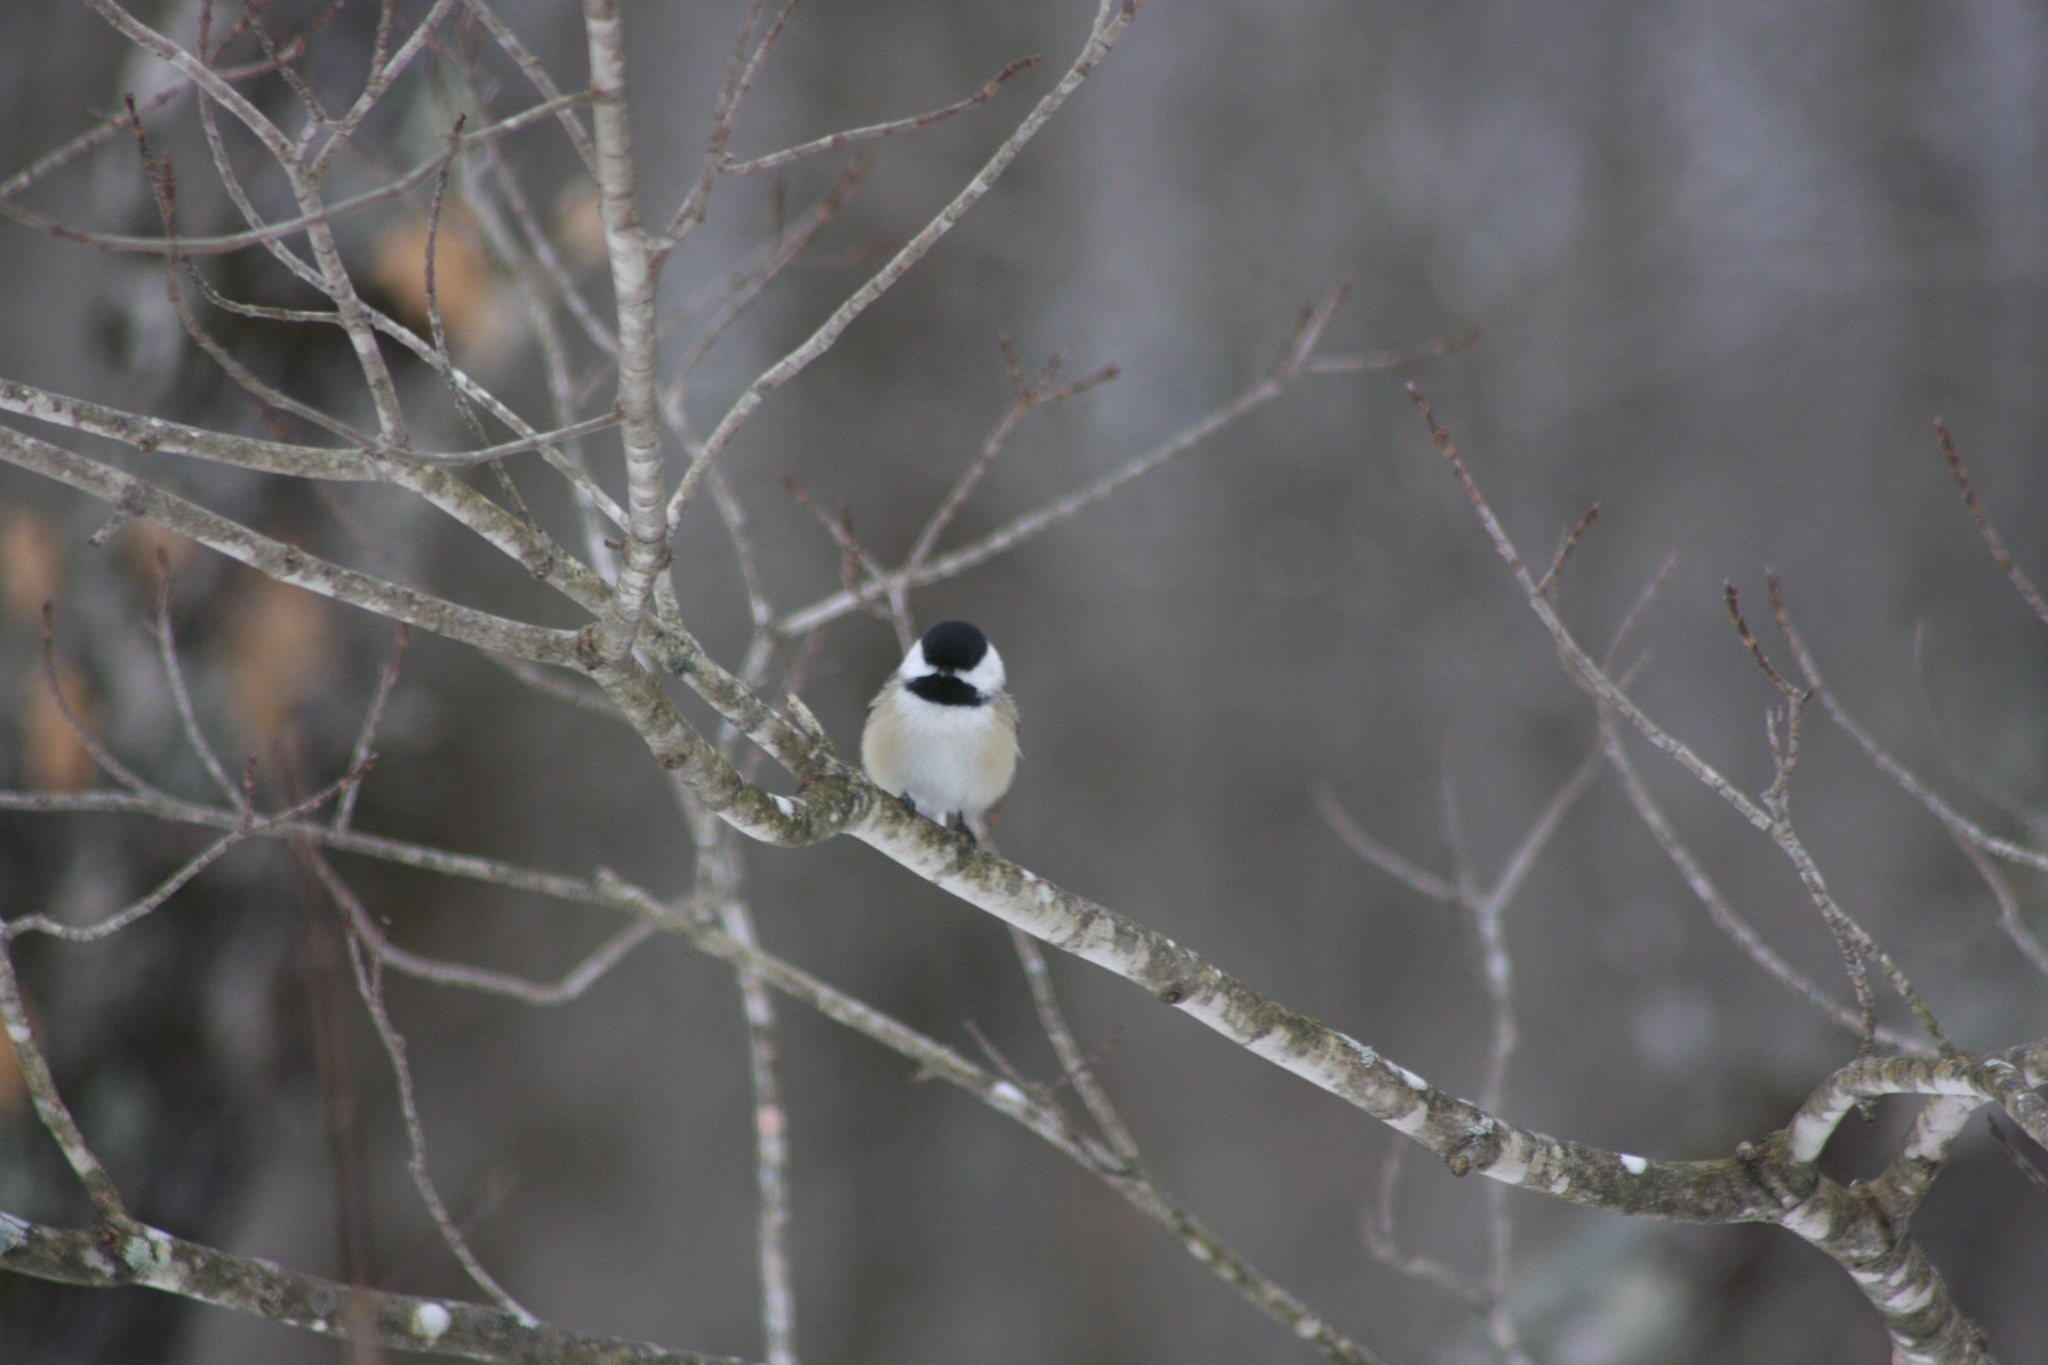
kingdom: Animalia
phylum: Chordata
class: Aves
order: Passeriformes
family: Paridae
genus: Poecile
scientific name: Poecile atricapillus
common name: Black-capped chickadee
